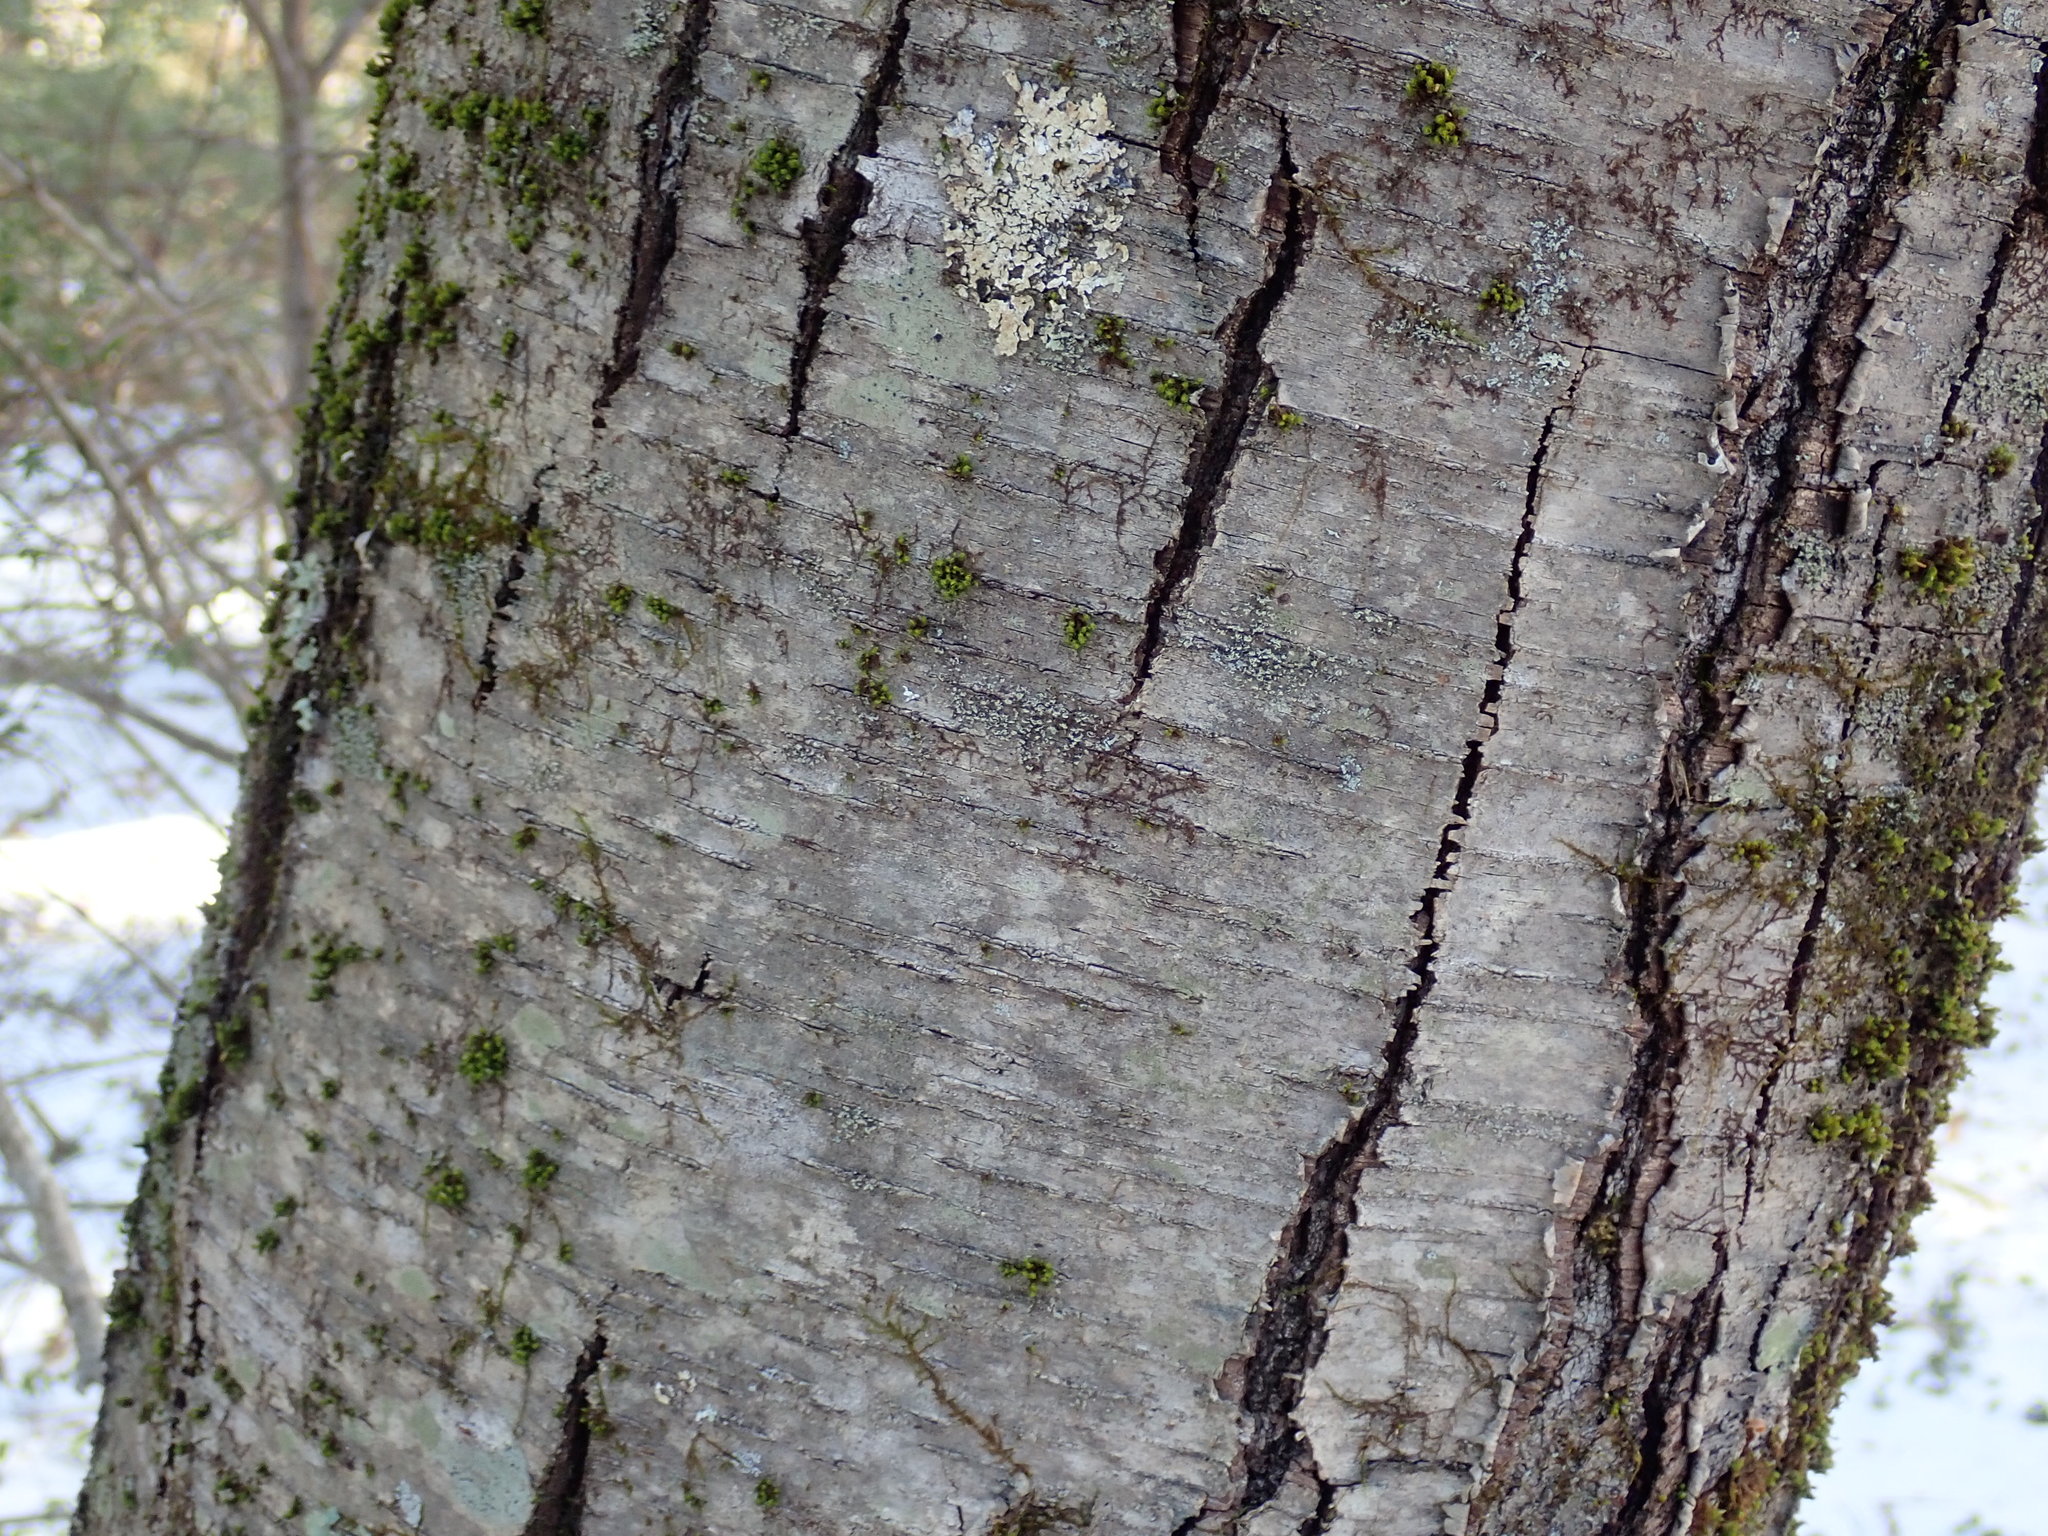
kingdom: Plantae
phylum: Tracheophyta
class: Magnoliopsida
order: Fagales
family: Betulaceae
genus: Betula
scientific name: Betula lenta
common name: Black birch
